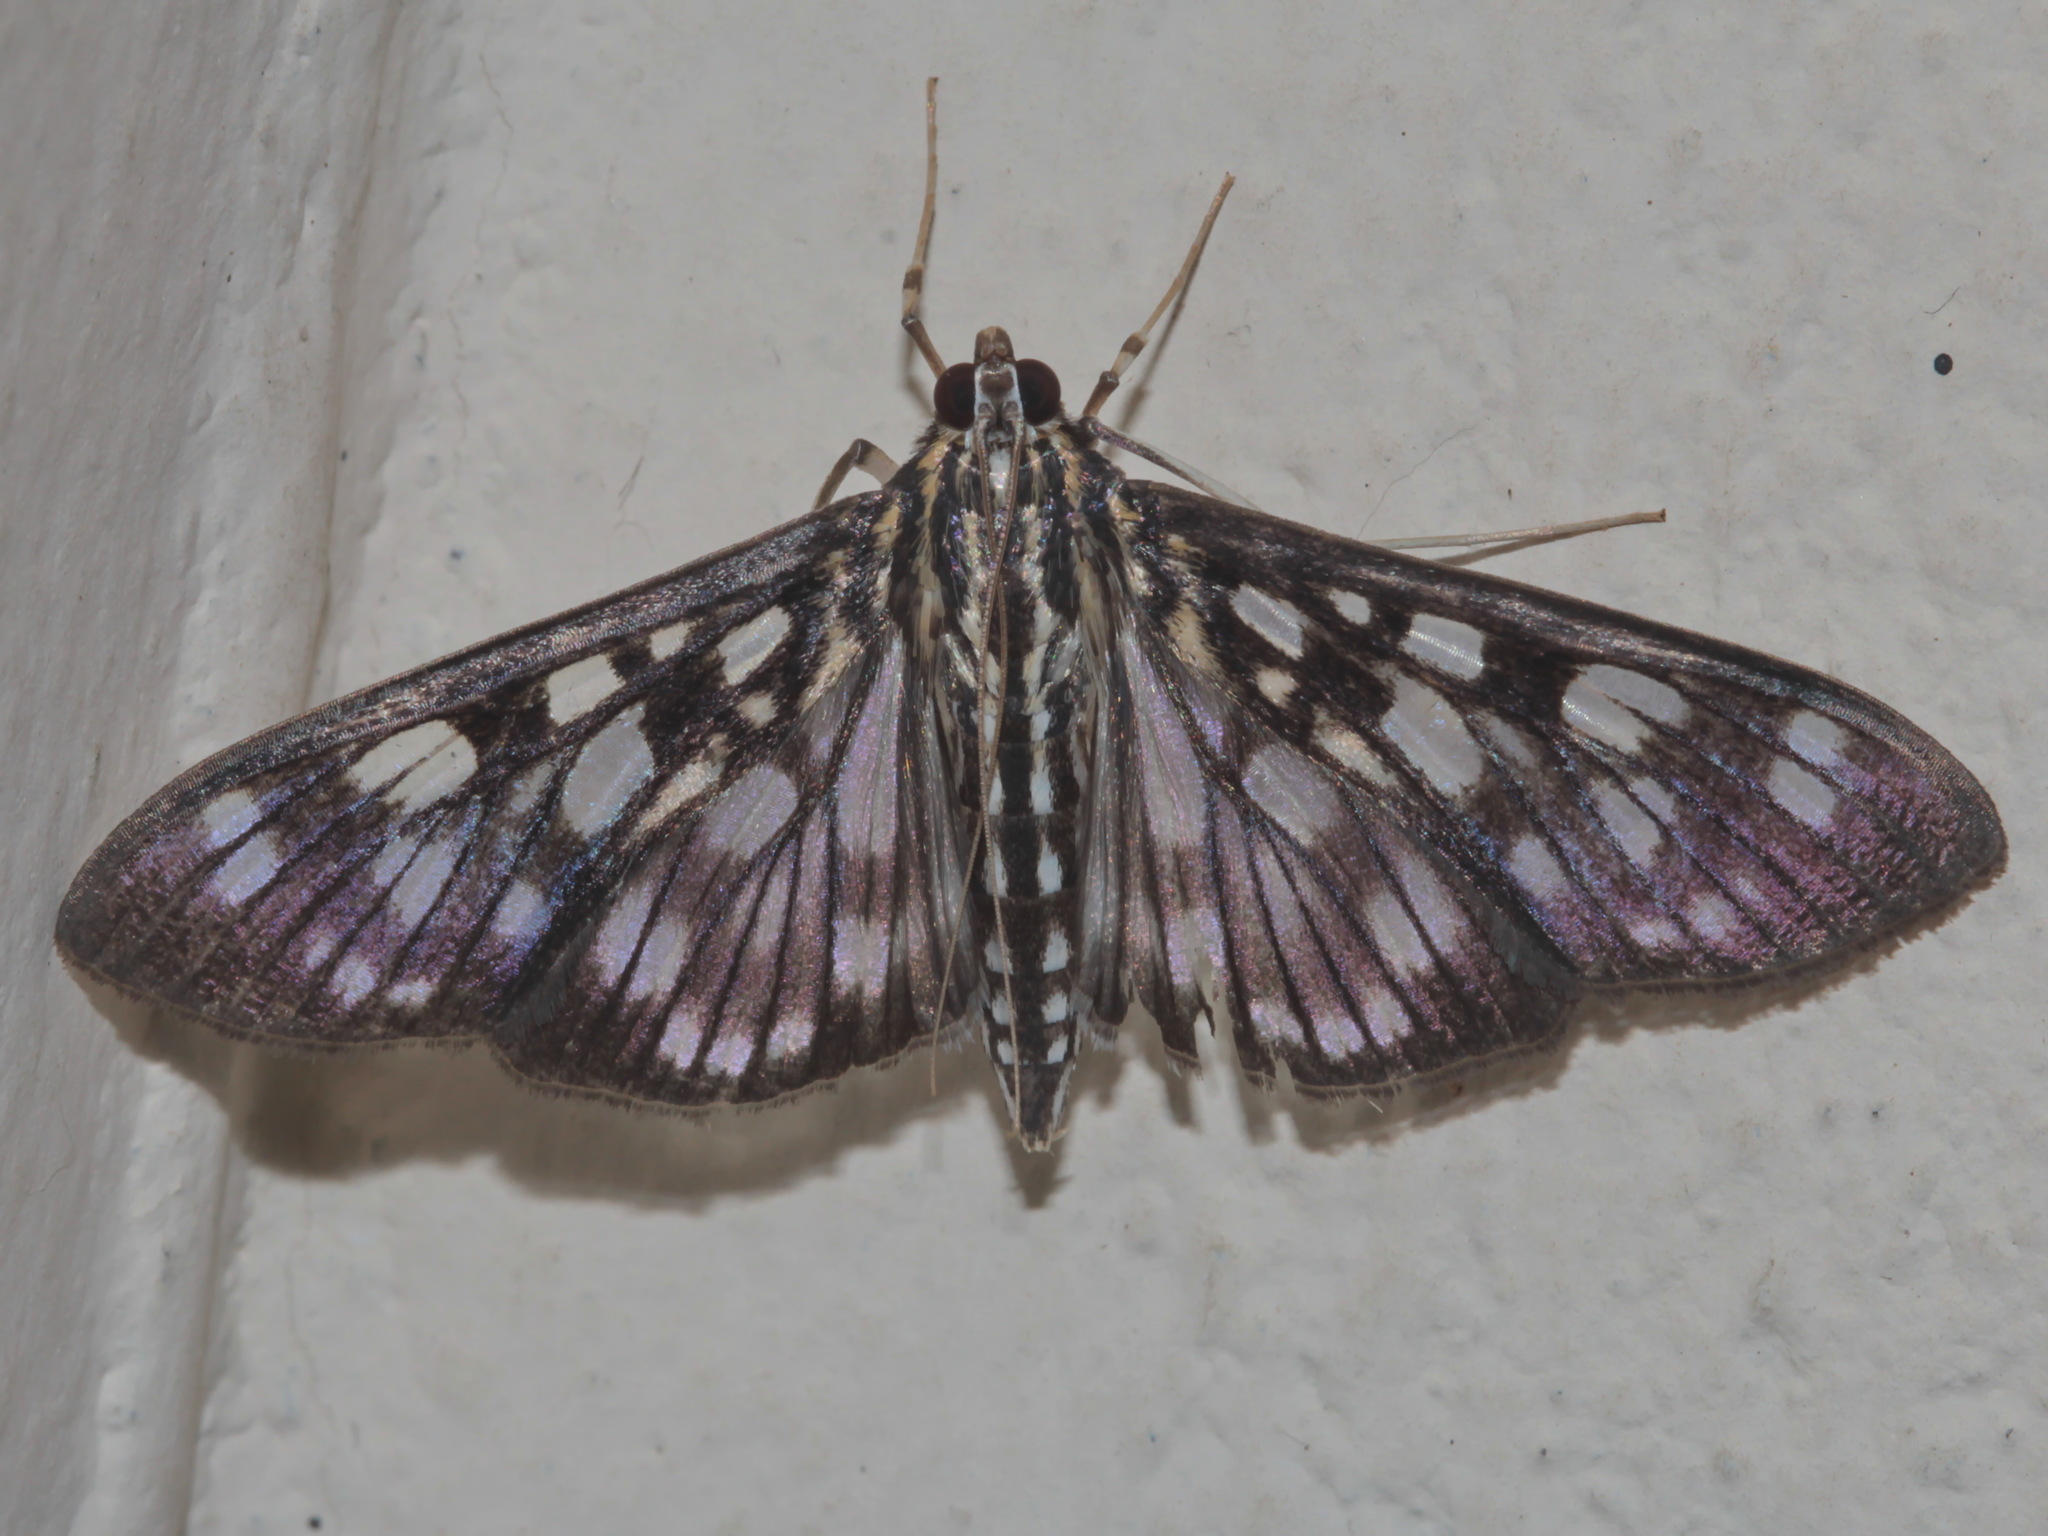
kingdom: Animalia
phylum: Arthropoda
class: Insecta
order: Lepidoptera
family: Crambidae
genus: Pygospila
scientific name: Pygospila tyres
